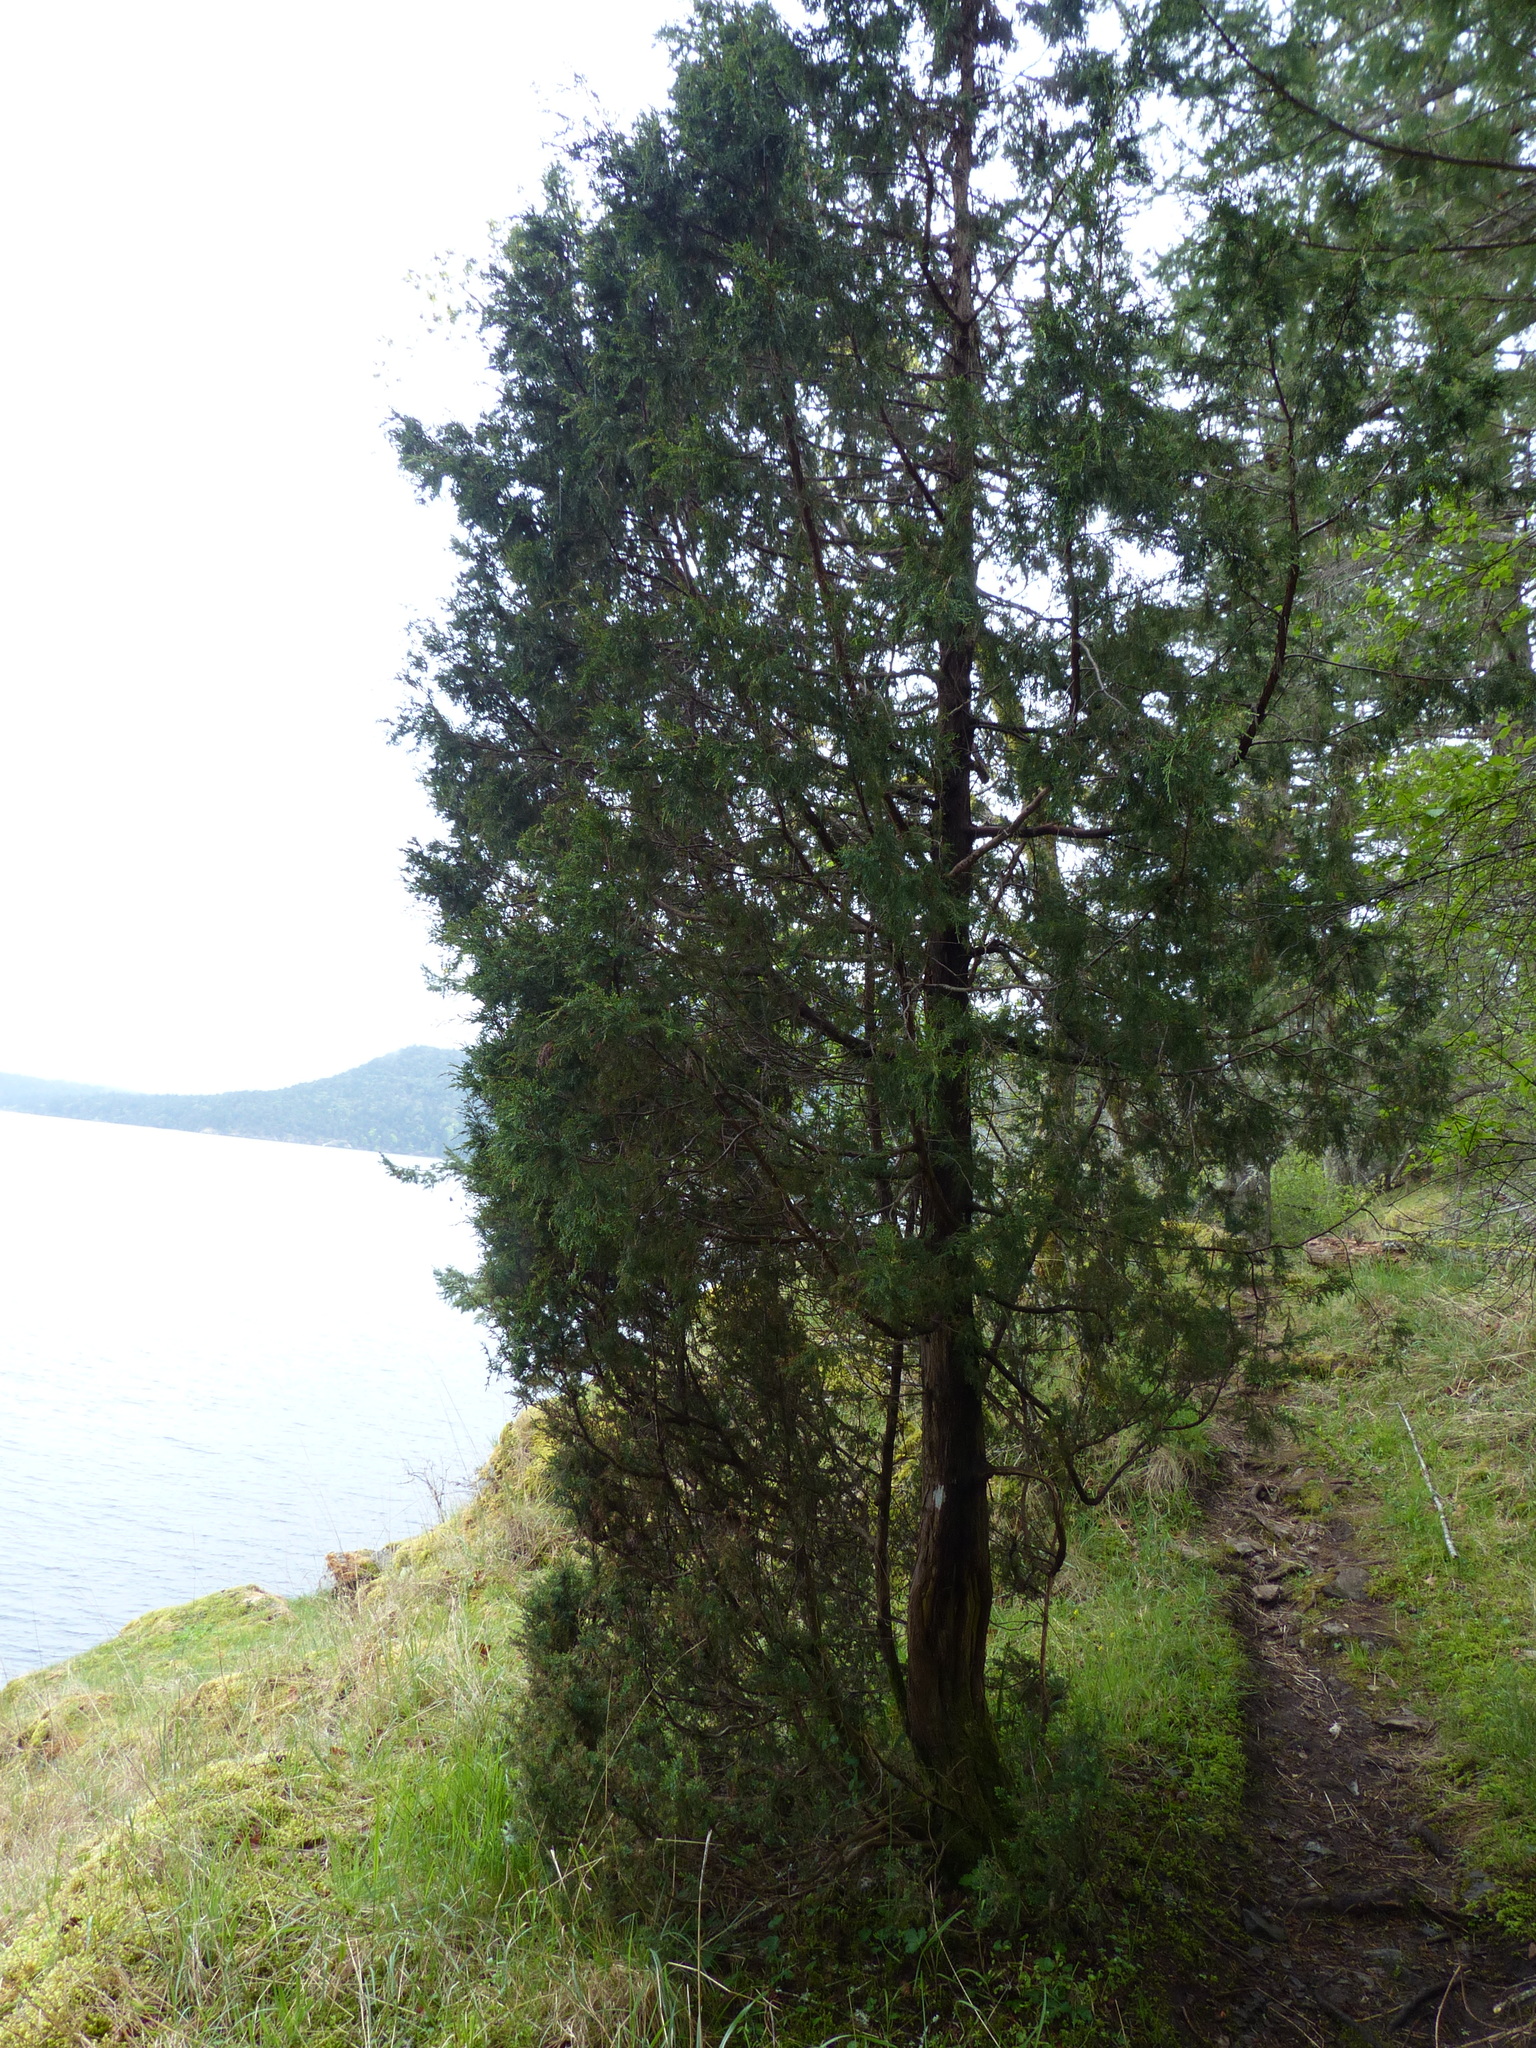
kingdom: Plantae
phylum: Tracheophyta
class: Pinopsida
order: Pinales
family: Cupressaceae
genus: Juniperus
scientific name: Juniperus scopulorum
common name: Rocky mountain juniper
